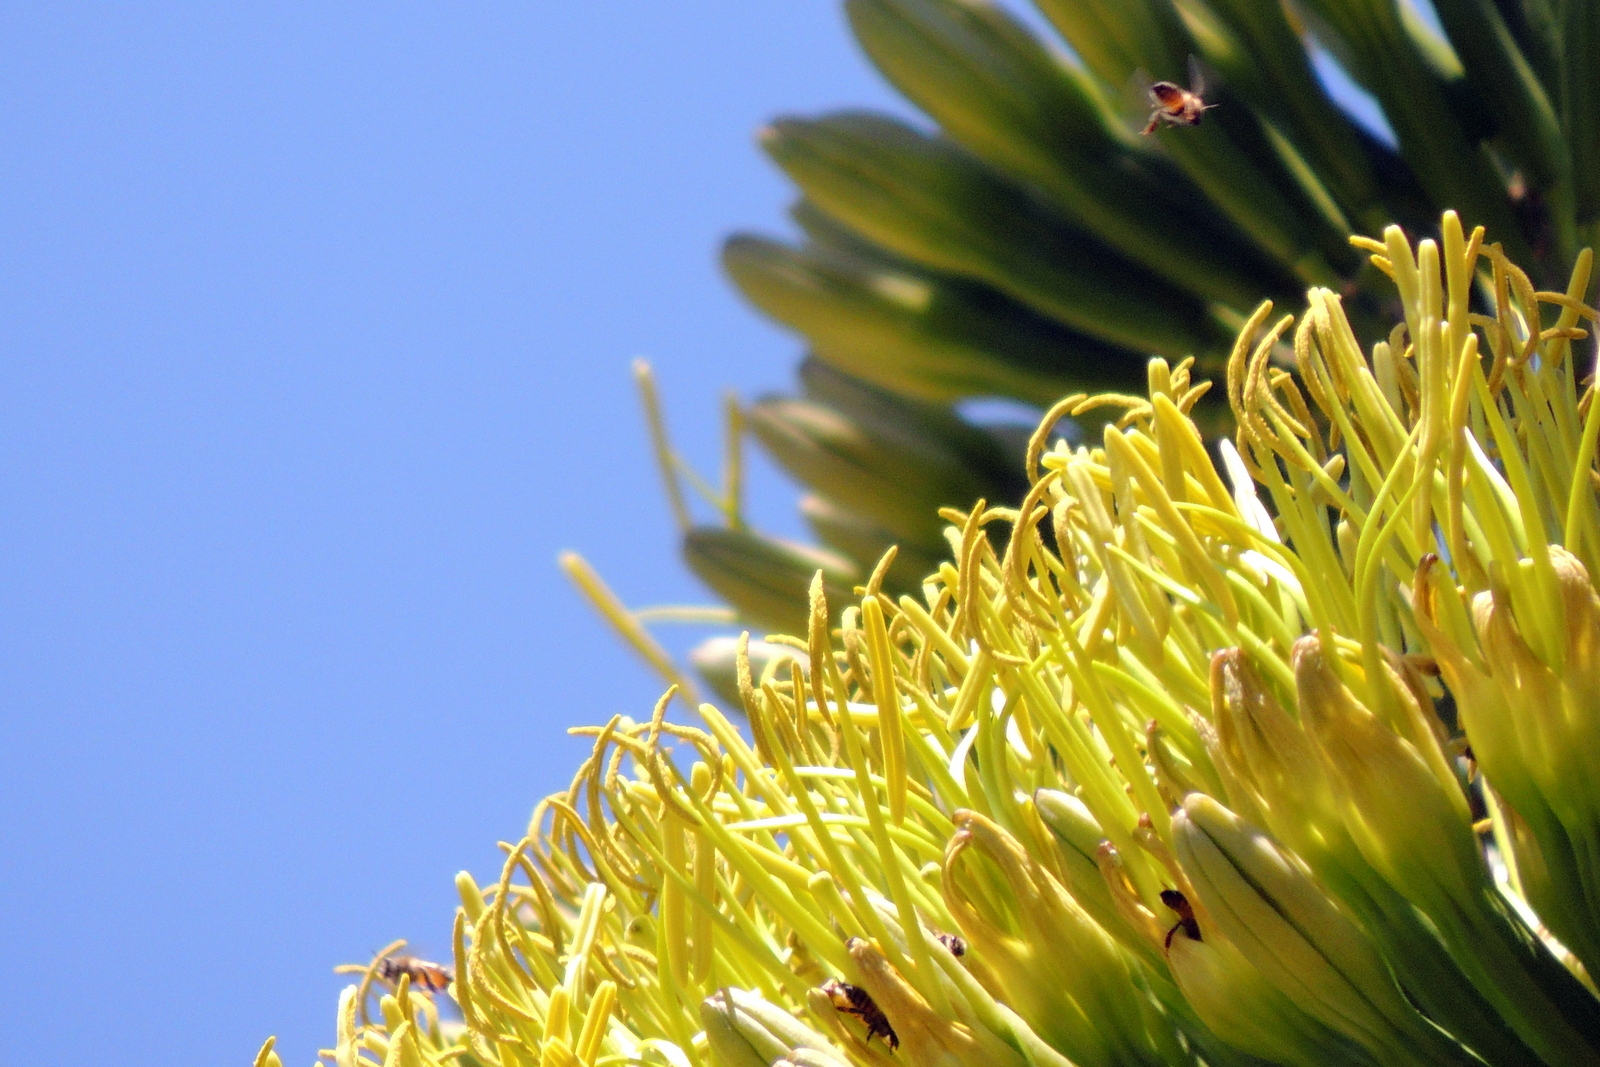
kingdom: Animalia
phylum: Arthropoda
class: Insecta
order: Hymenoptera
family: Apidae
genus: Apis
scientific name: Apis mellifera
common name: Honey bee
